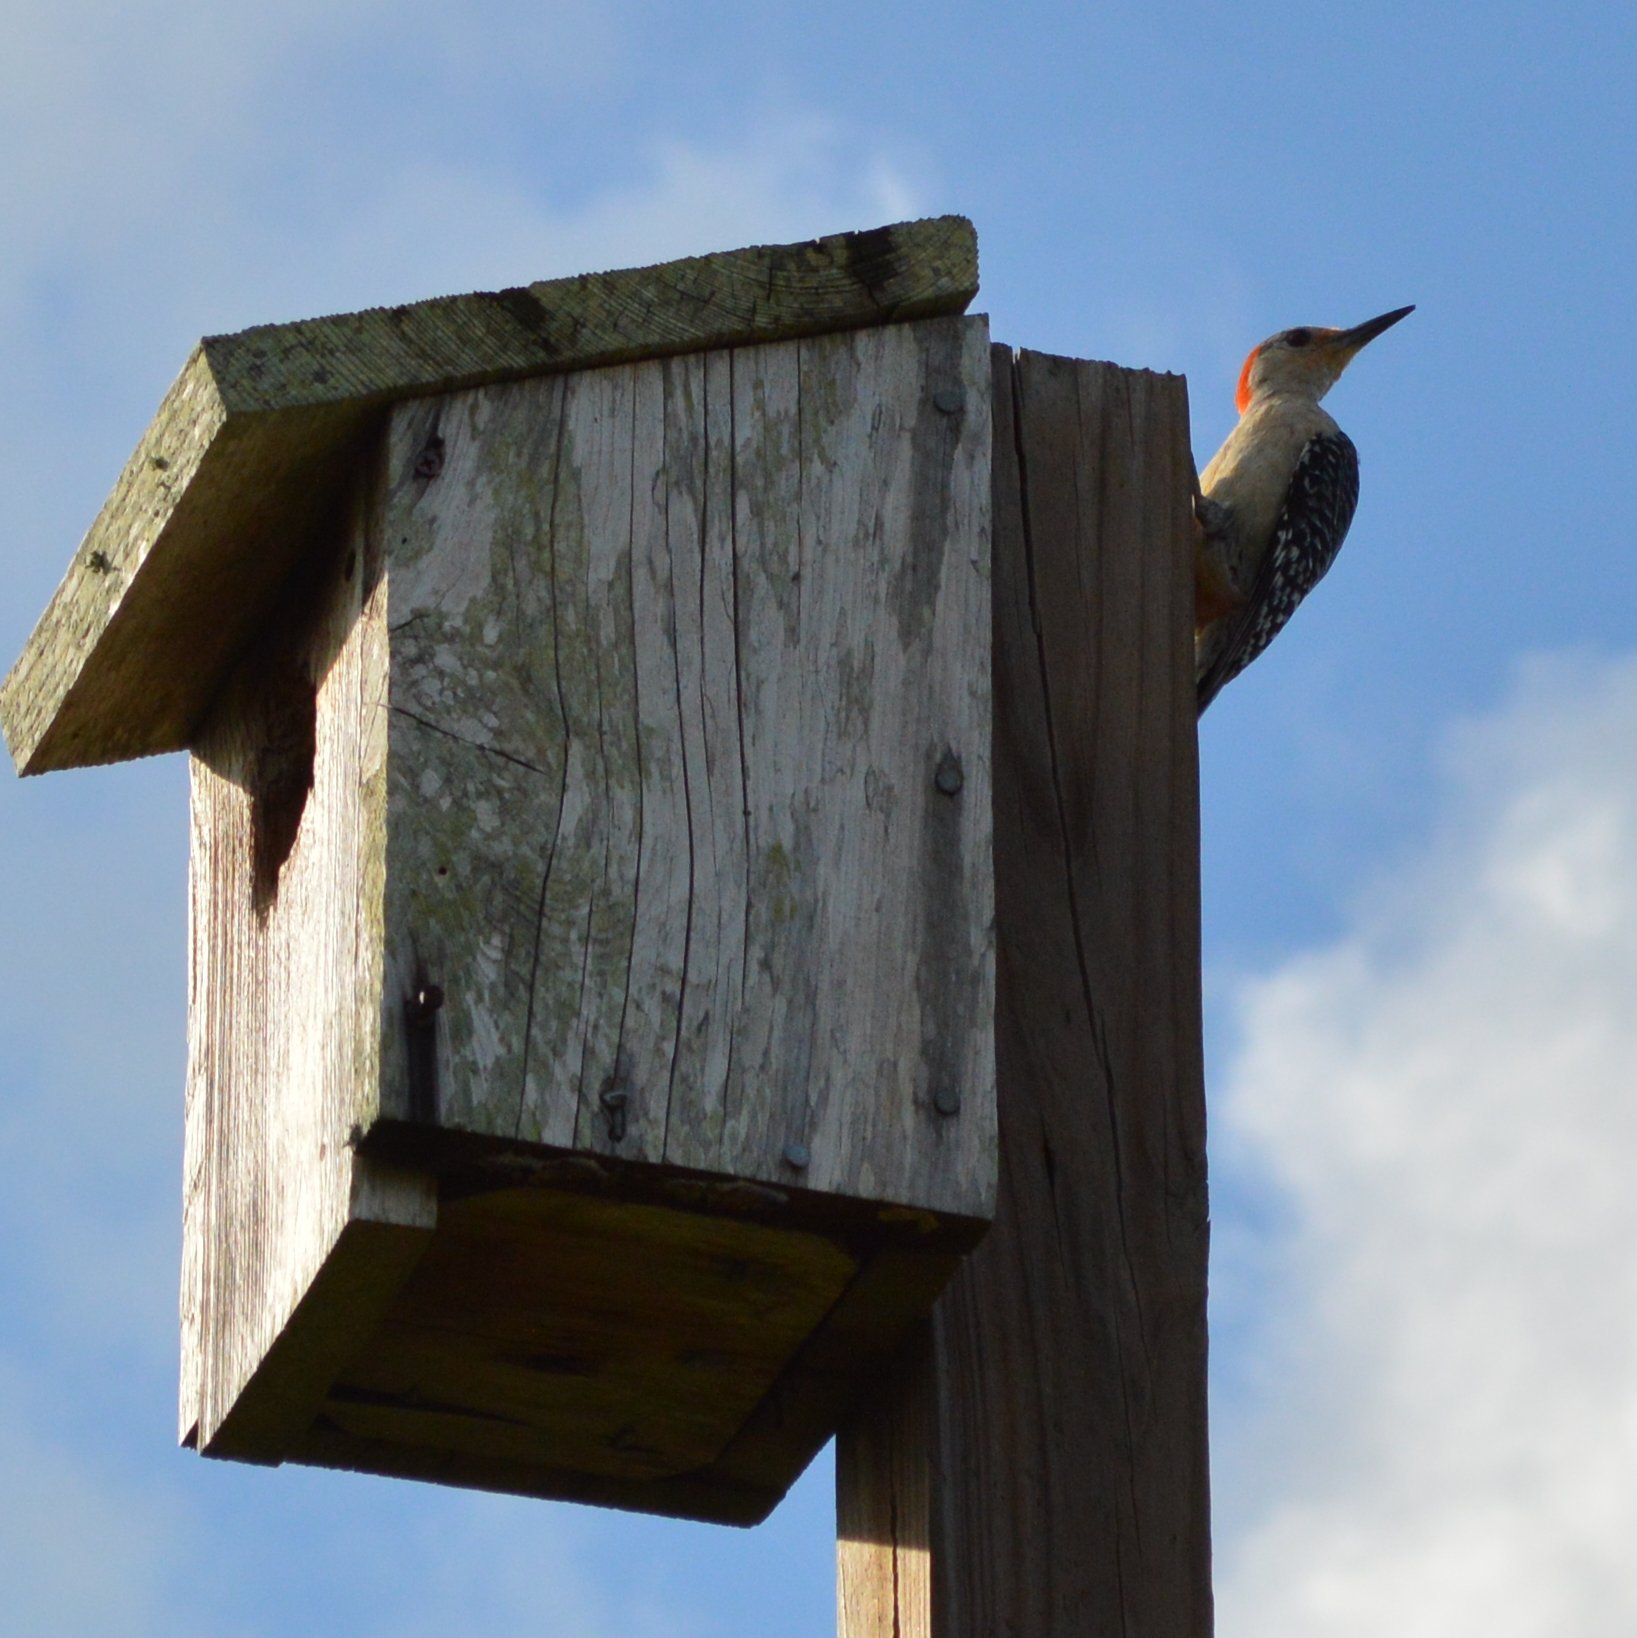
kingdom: Animalia
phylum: Chordata
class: Aves
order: Piciformes
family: Picidae
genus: Melanerpes
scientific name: Melanerpes carolinus
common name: Red-bellied woodpecker
